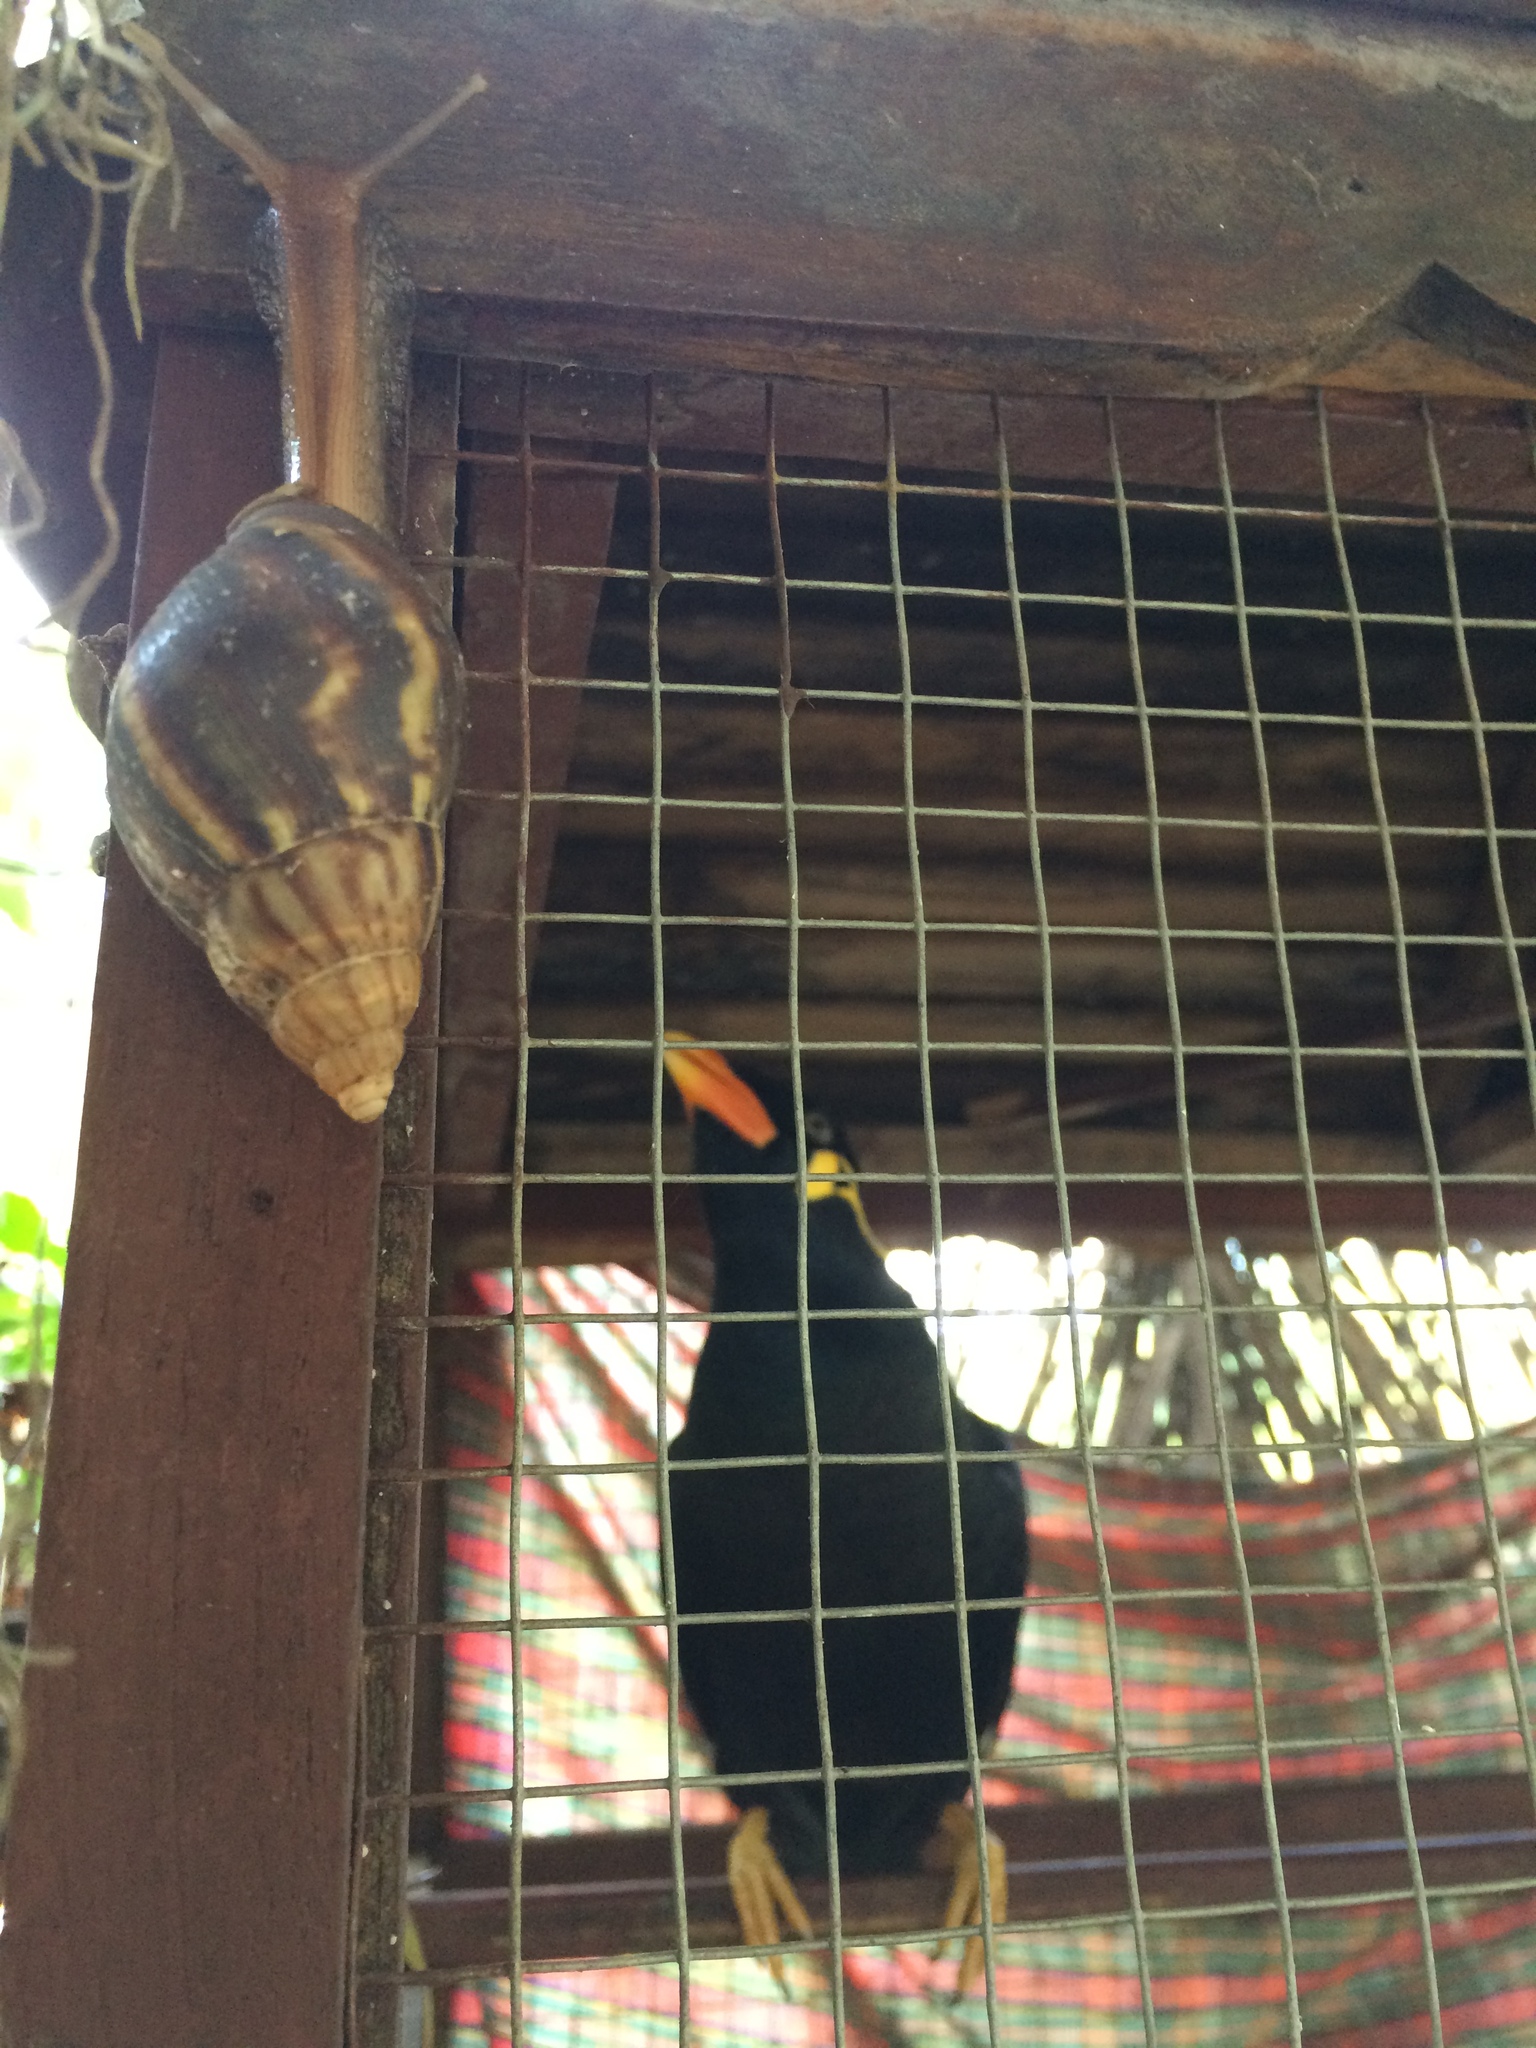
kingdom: Animalia
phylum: Mollusca
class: Gastropoda
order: Stylommatophora
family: Achatinidae
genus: Lissachatina
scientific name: Lissachatina fulica
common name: Giant african snail
